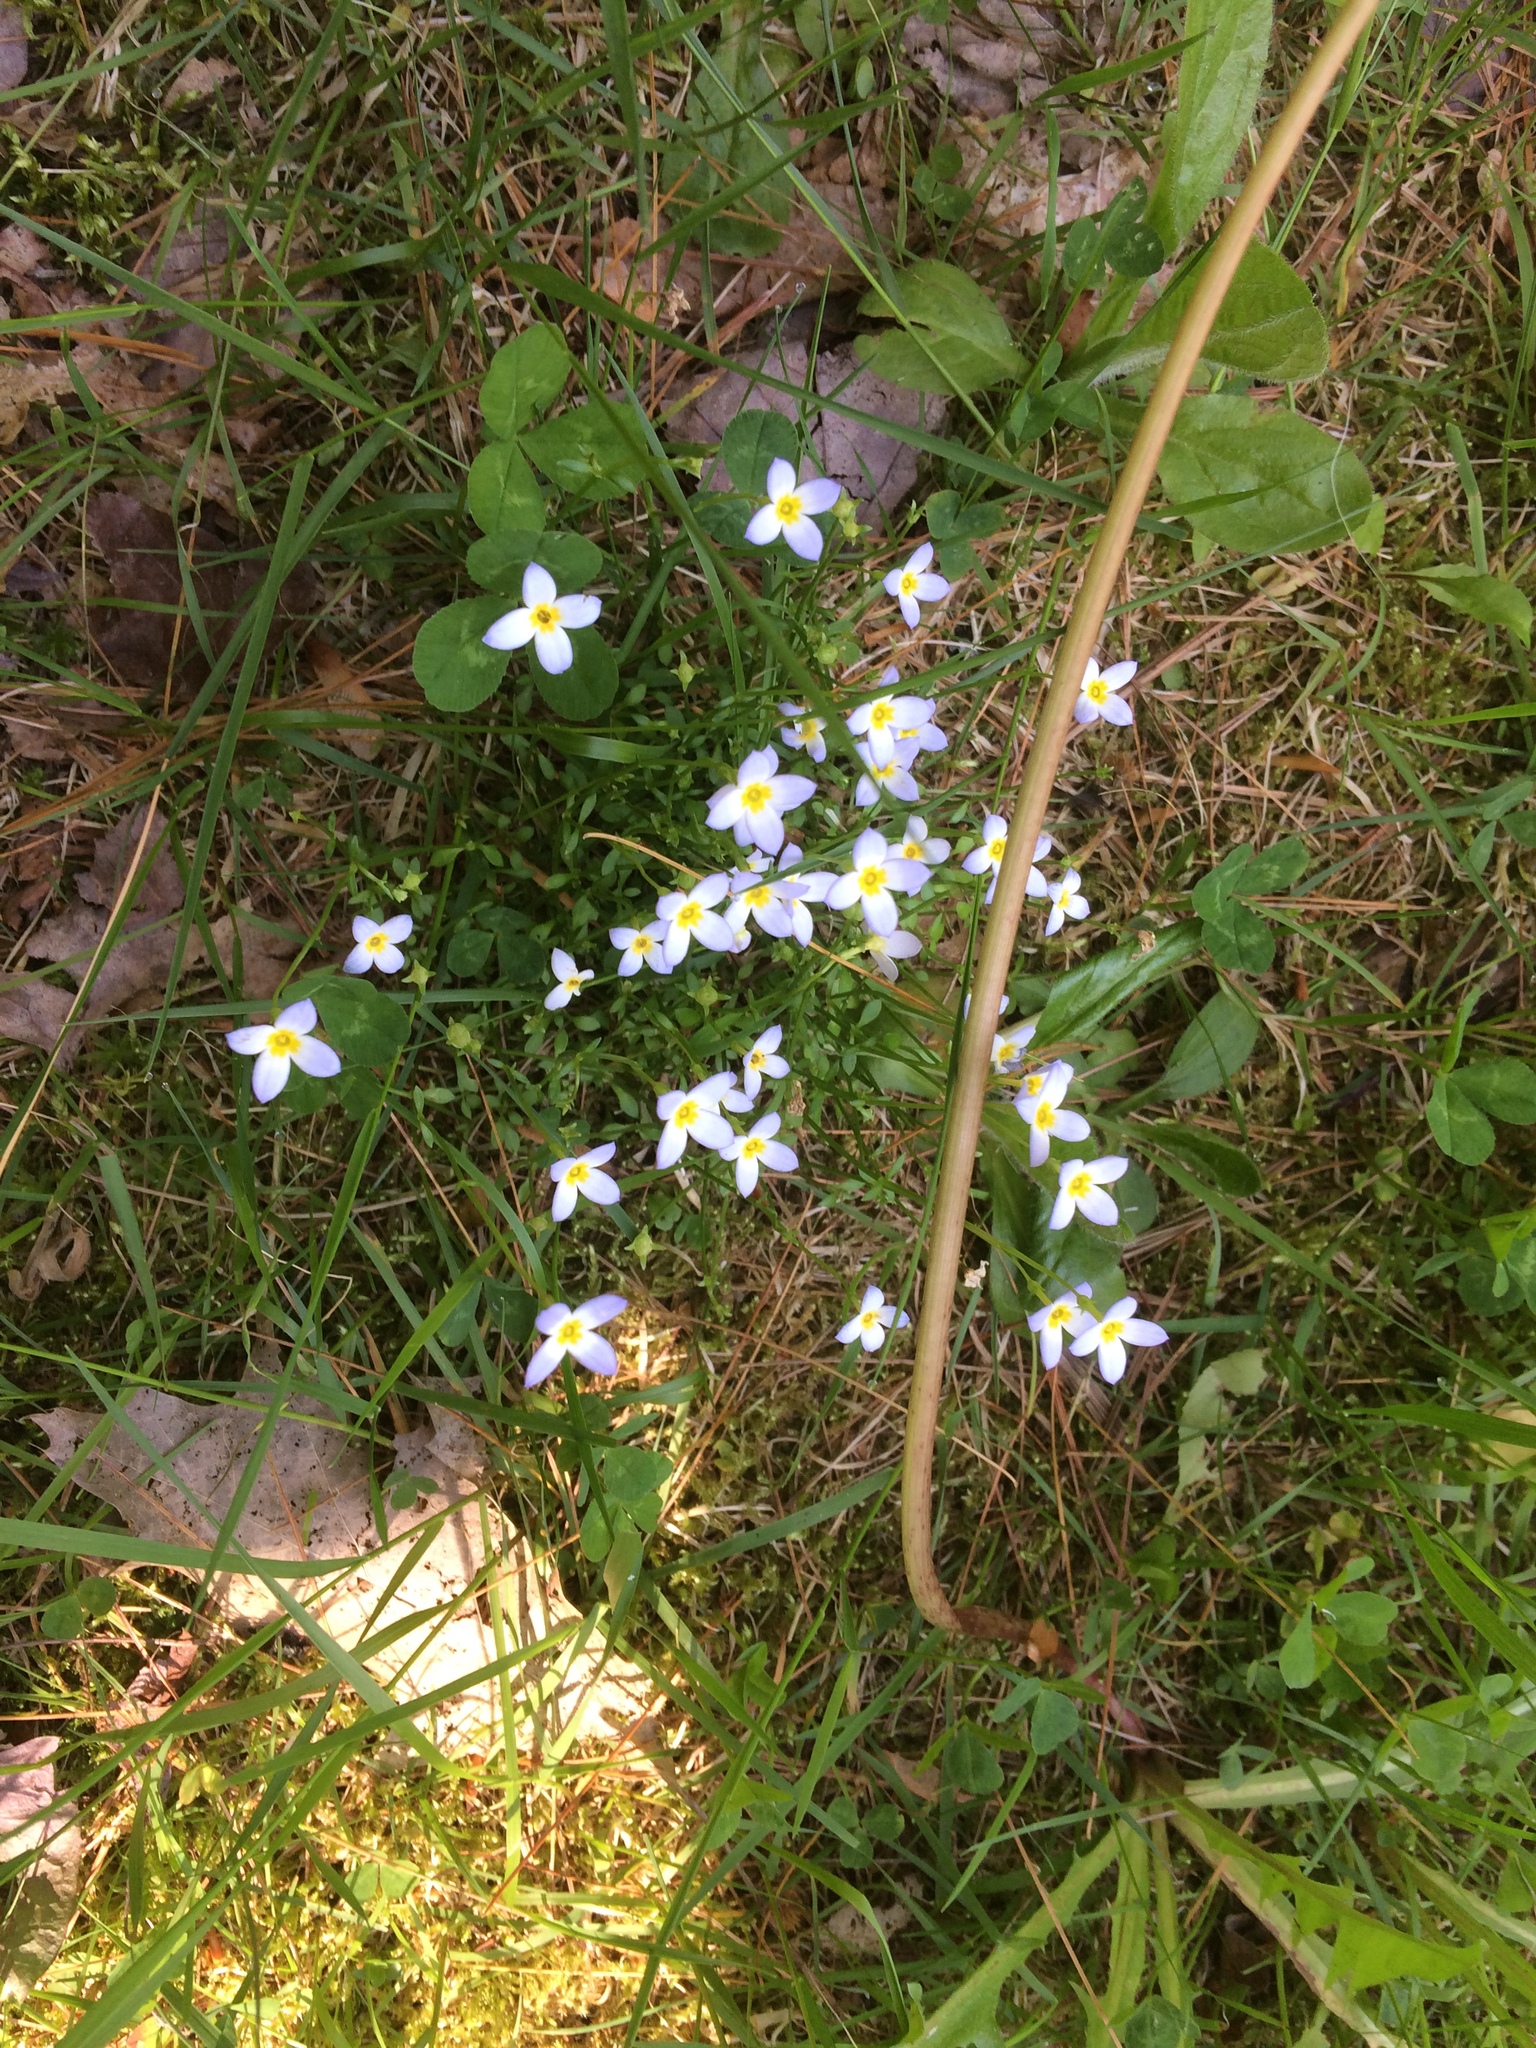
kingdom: Plantae
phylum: Tracheophyta
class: Magnoliopsida
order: Gentianales
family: Rubiaceae
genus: Houstonia
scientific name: Houstonia caerulea
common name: Bluets
